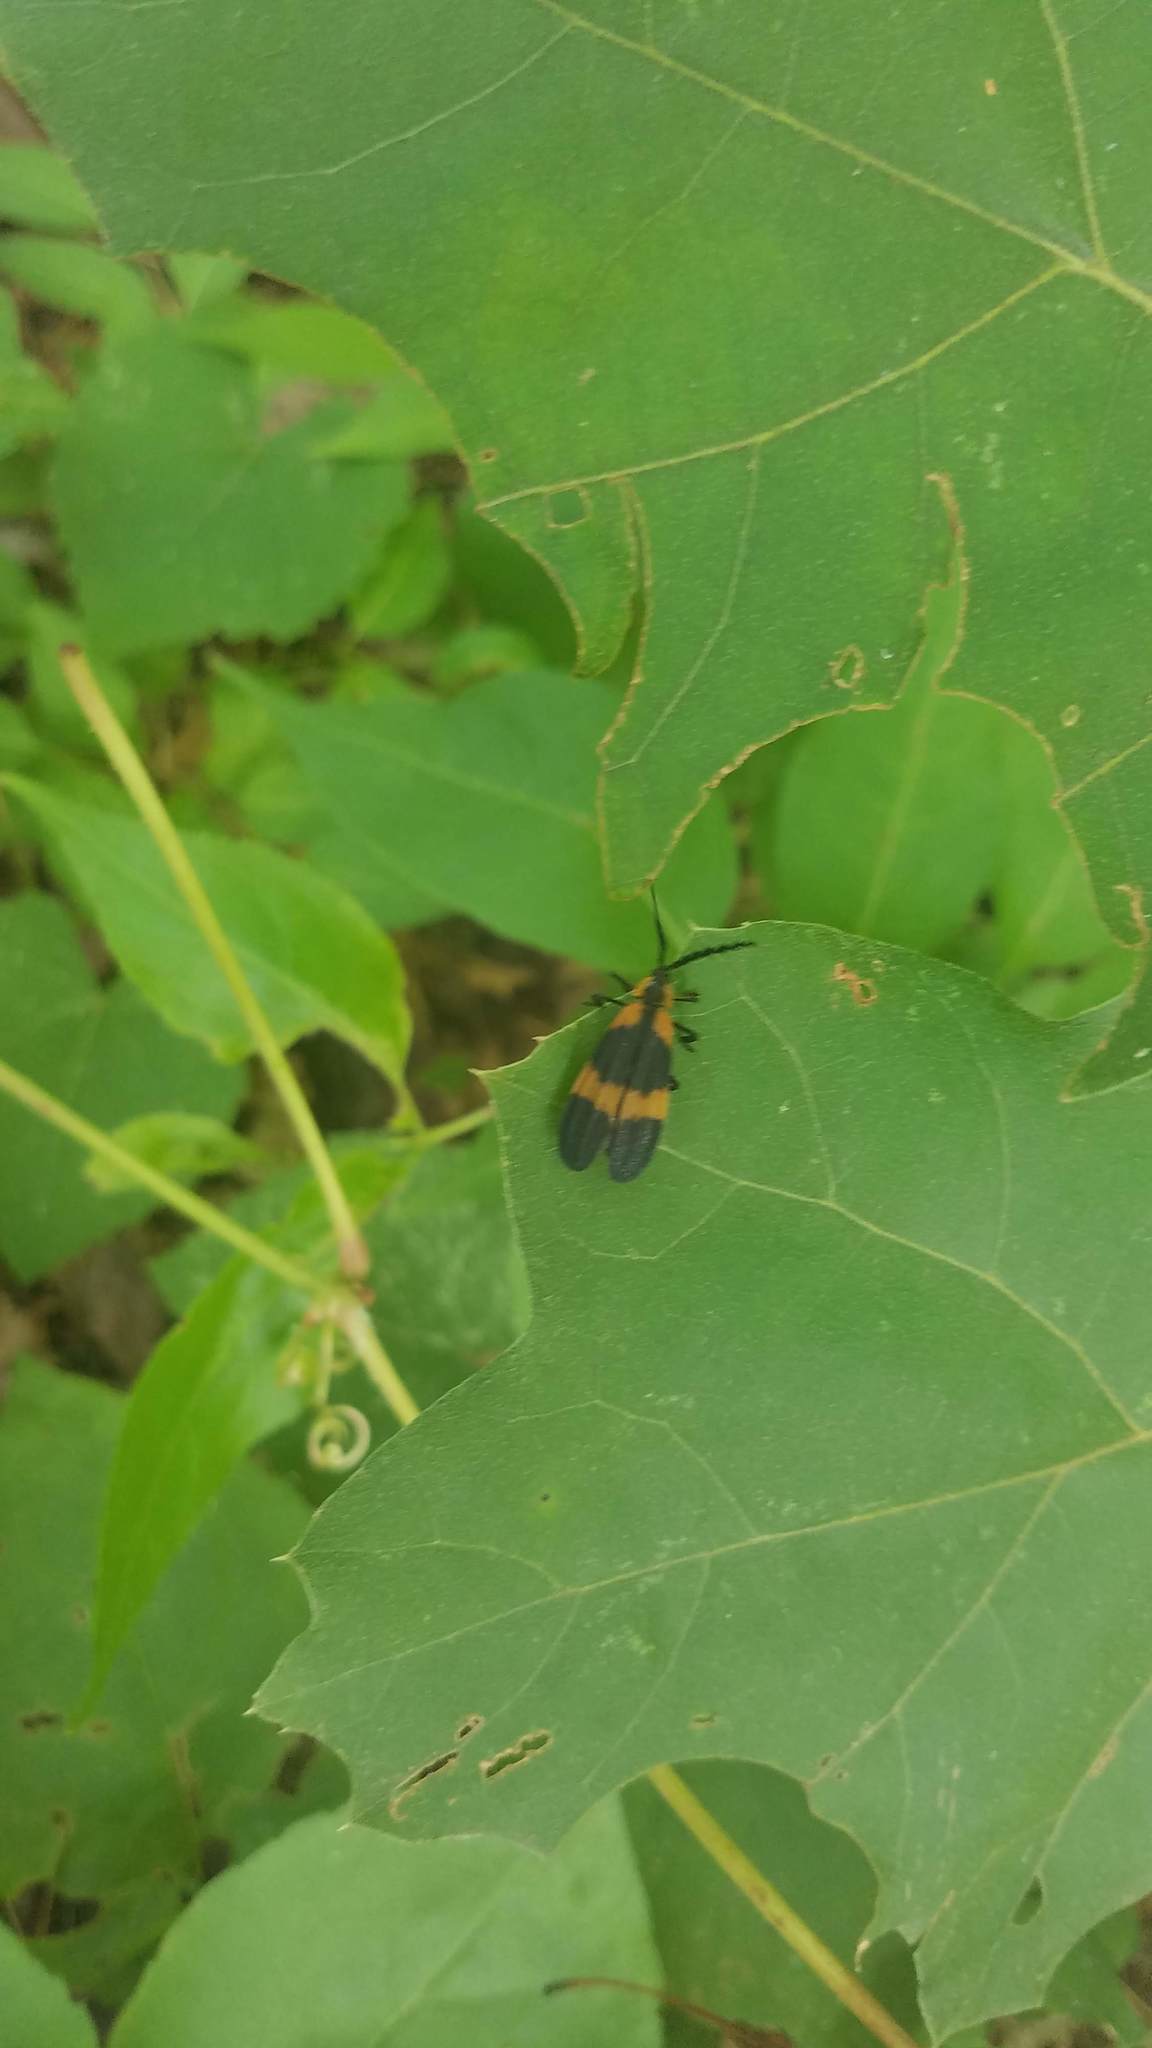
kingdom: Animalia
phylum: Arthropoda
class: Insecta
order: Coleoptera
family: Lycidae
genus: Calopteron
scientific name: Calopteron reticulatum
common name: Banded net-winged beetle
